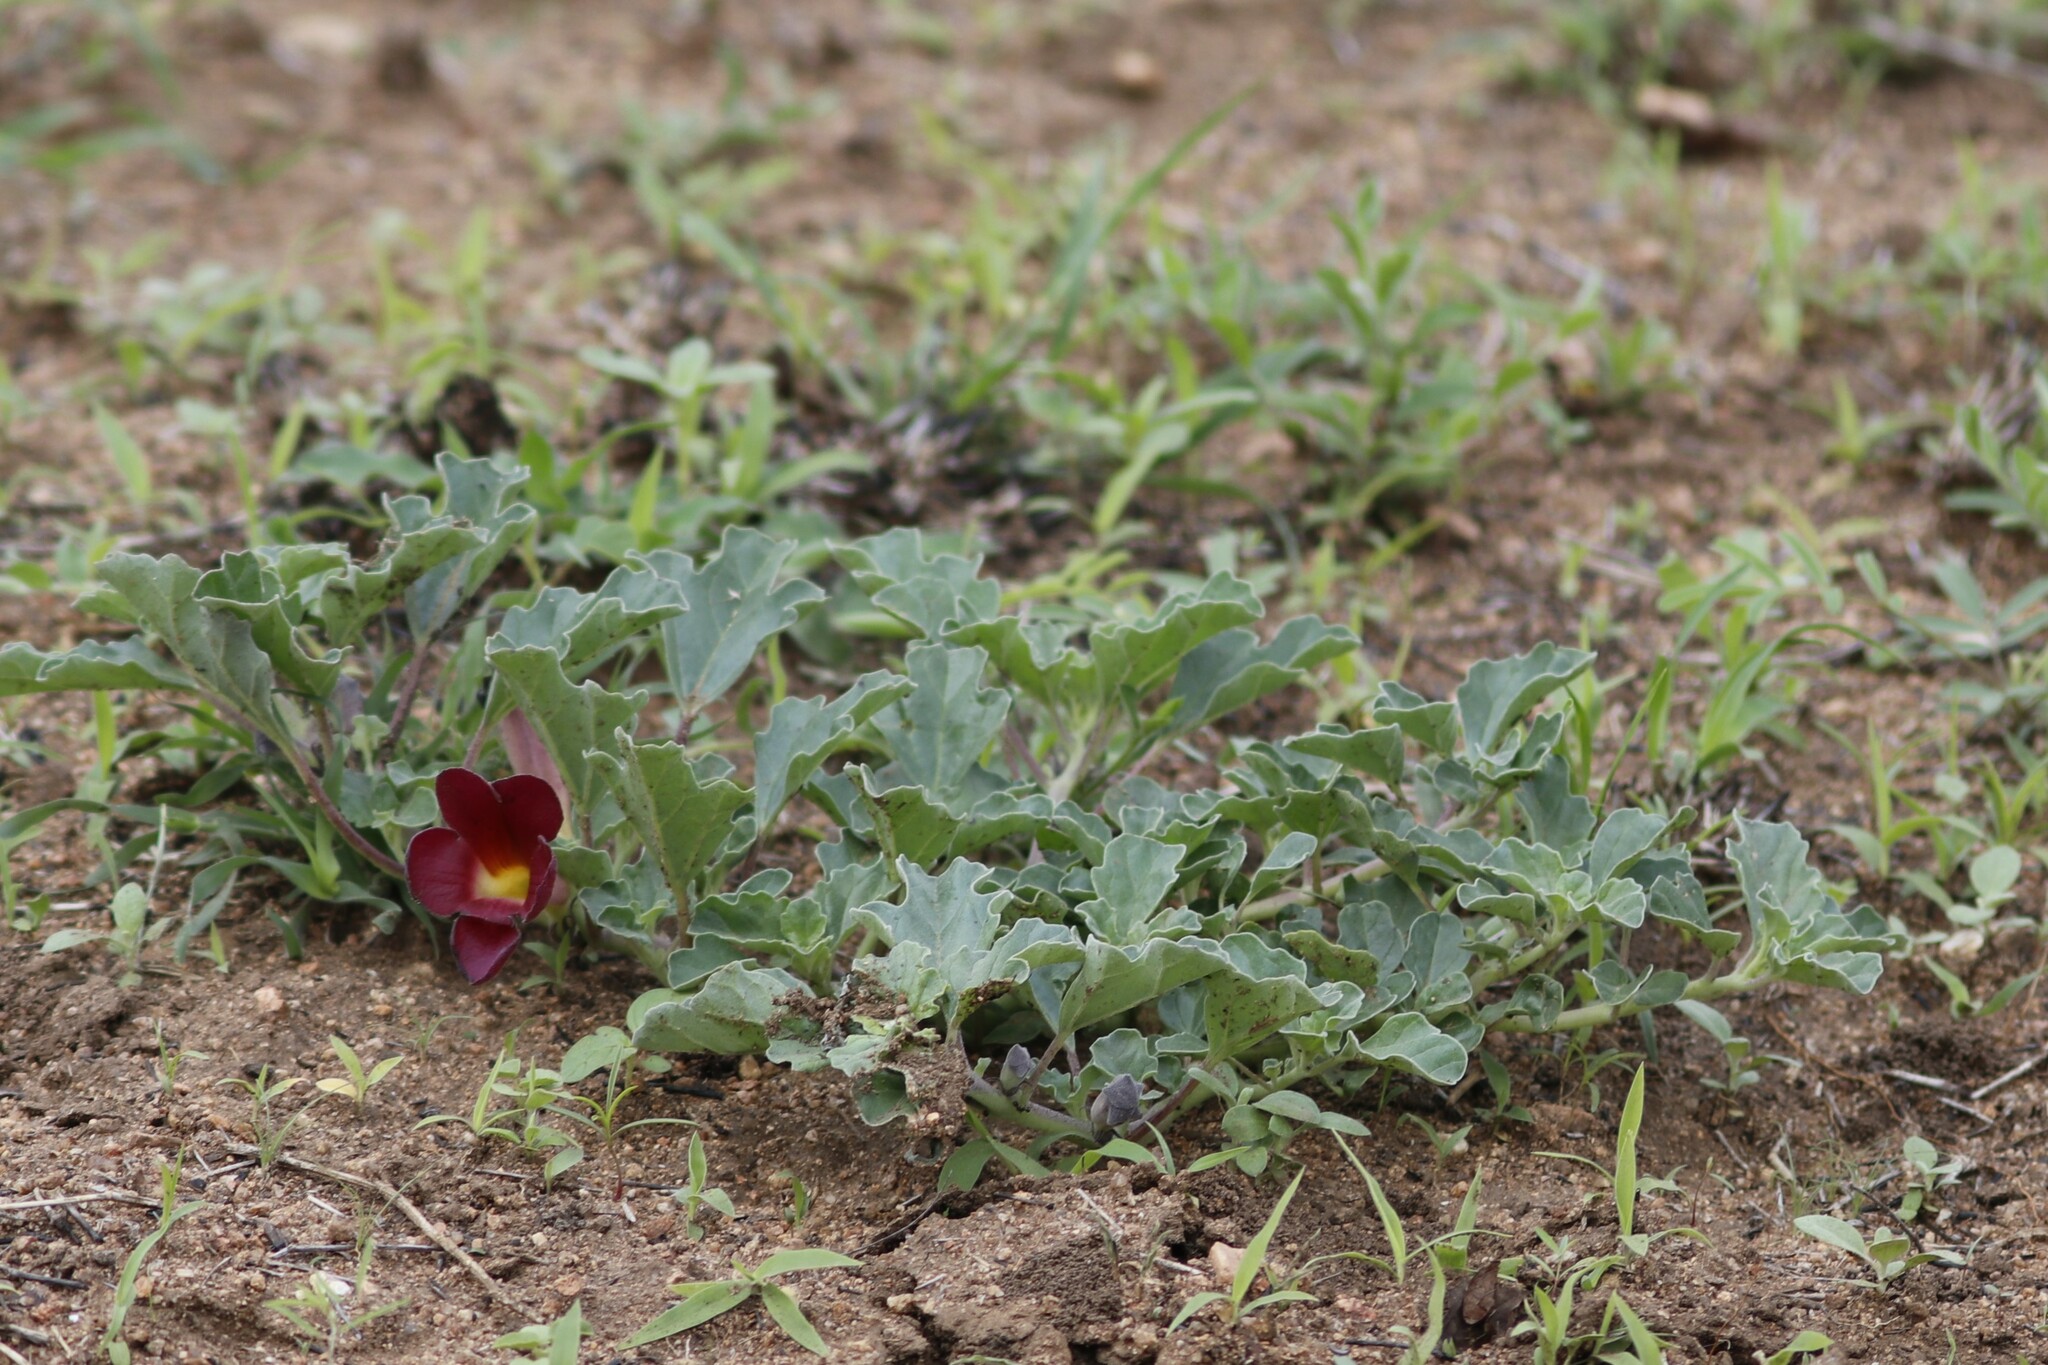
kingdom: Plantae
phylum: Tracheophyta
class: Magnoliopsida
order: Lamiales
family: Pedaliaceae
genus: Harpagophytum
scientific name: Harpagophytum zeyheri
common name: Grappleplant
